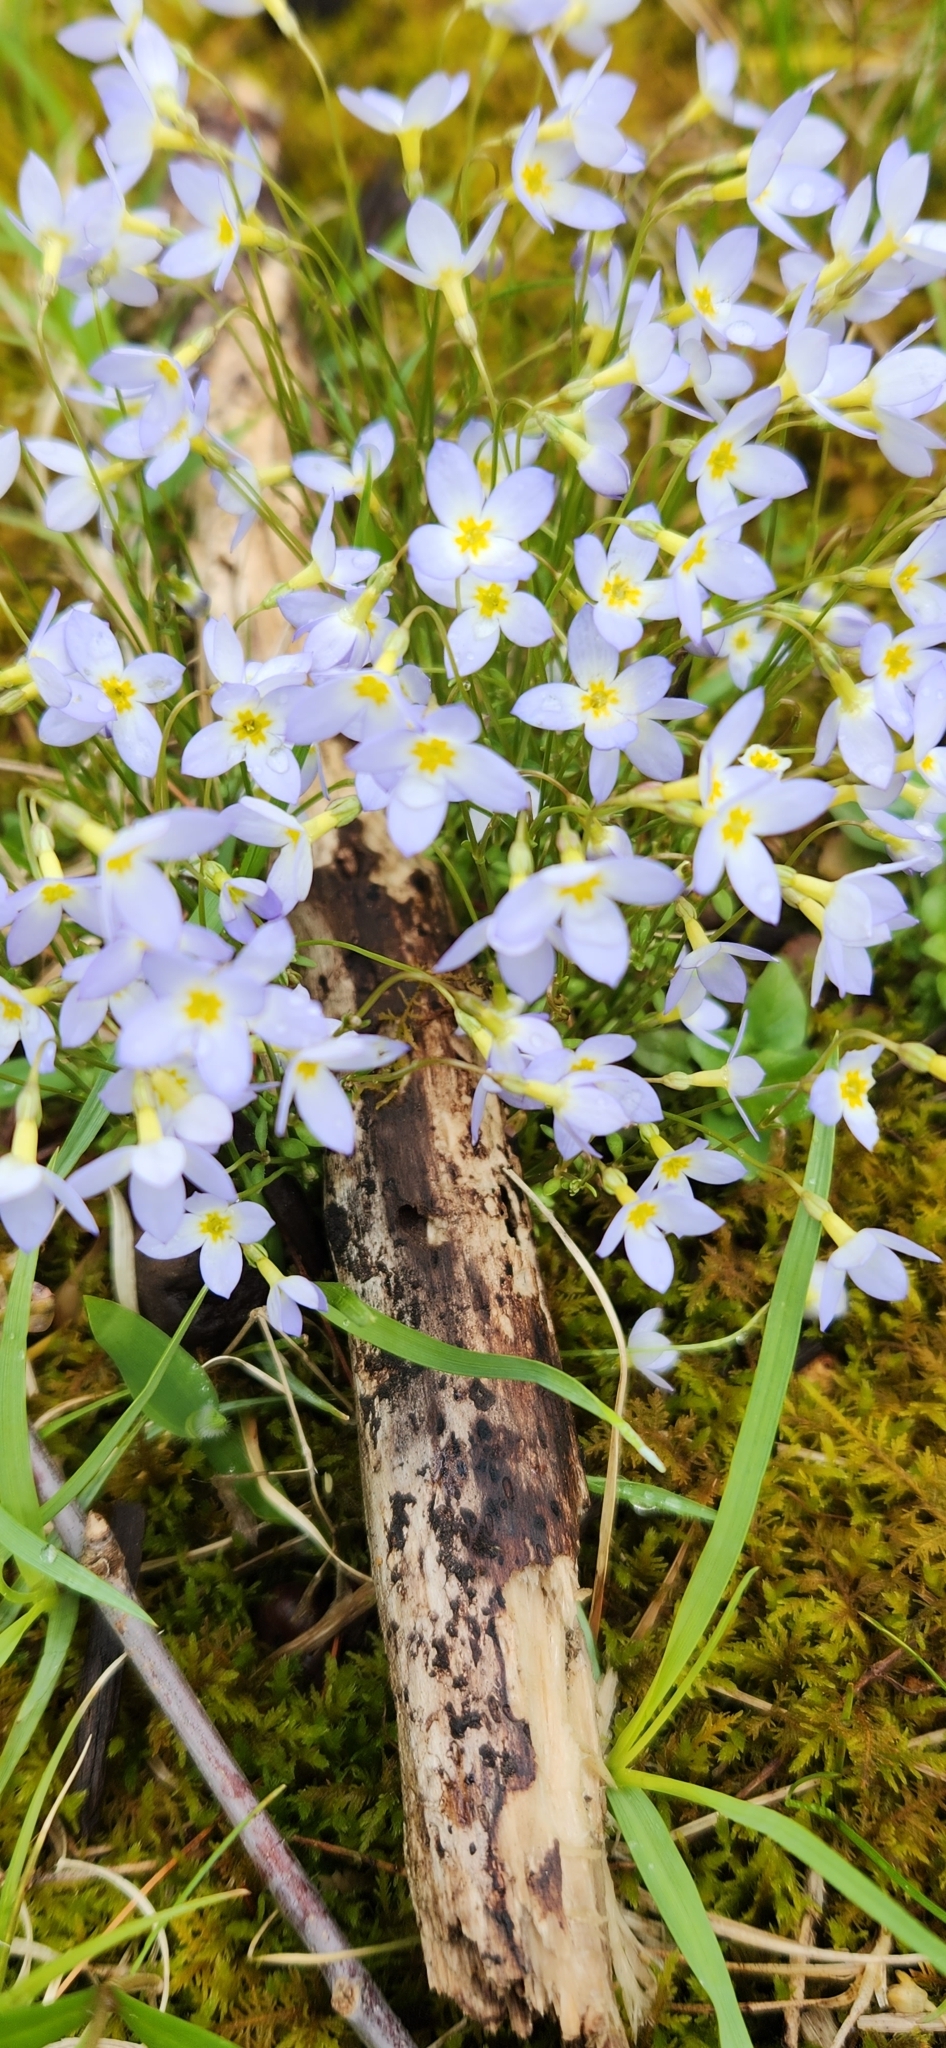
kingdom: Plantae
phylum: Tracheophyta
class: Magnoliopsida
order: Gentianales
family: Rubiaceae
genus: Houstonia
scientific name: Houstonia caerulea
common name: Bluets
